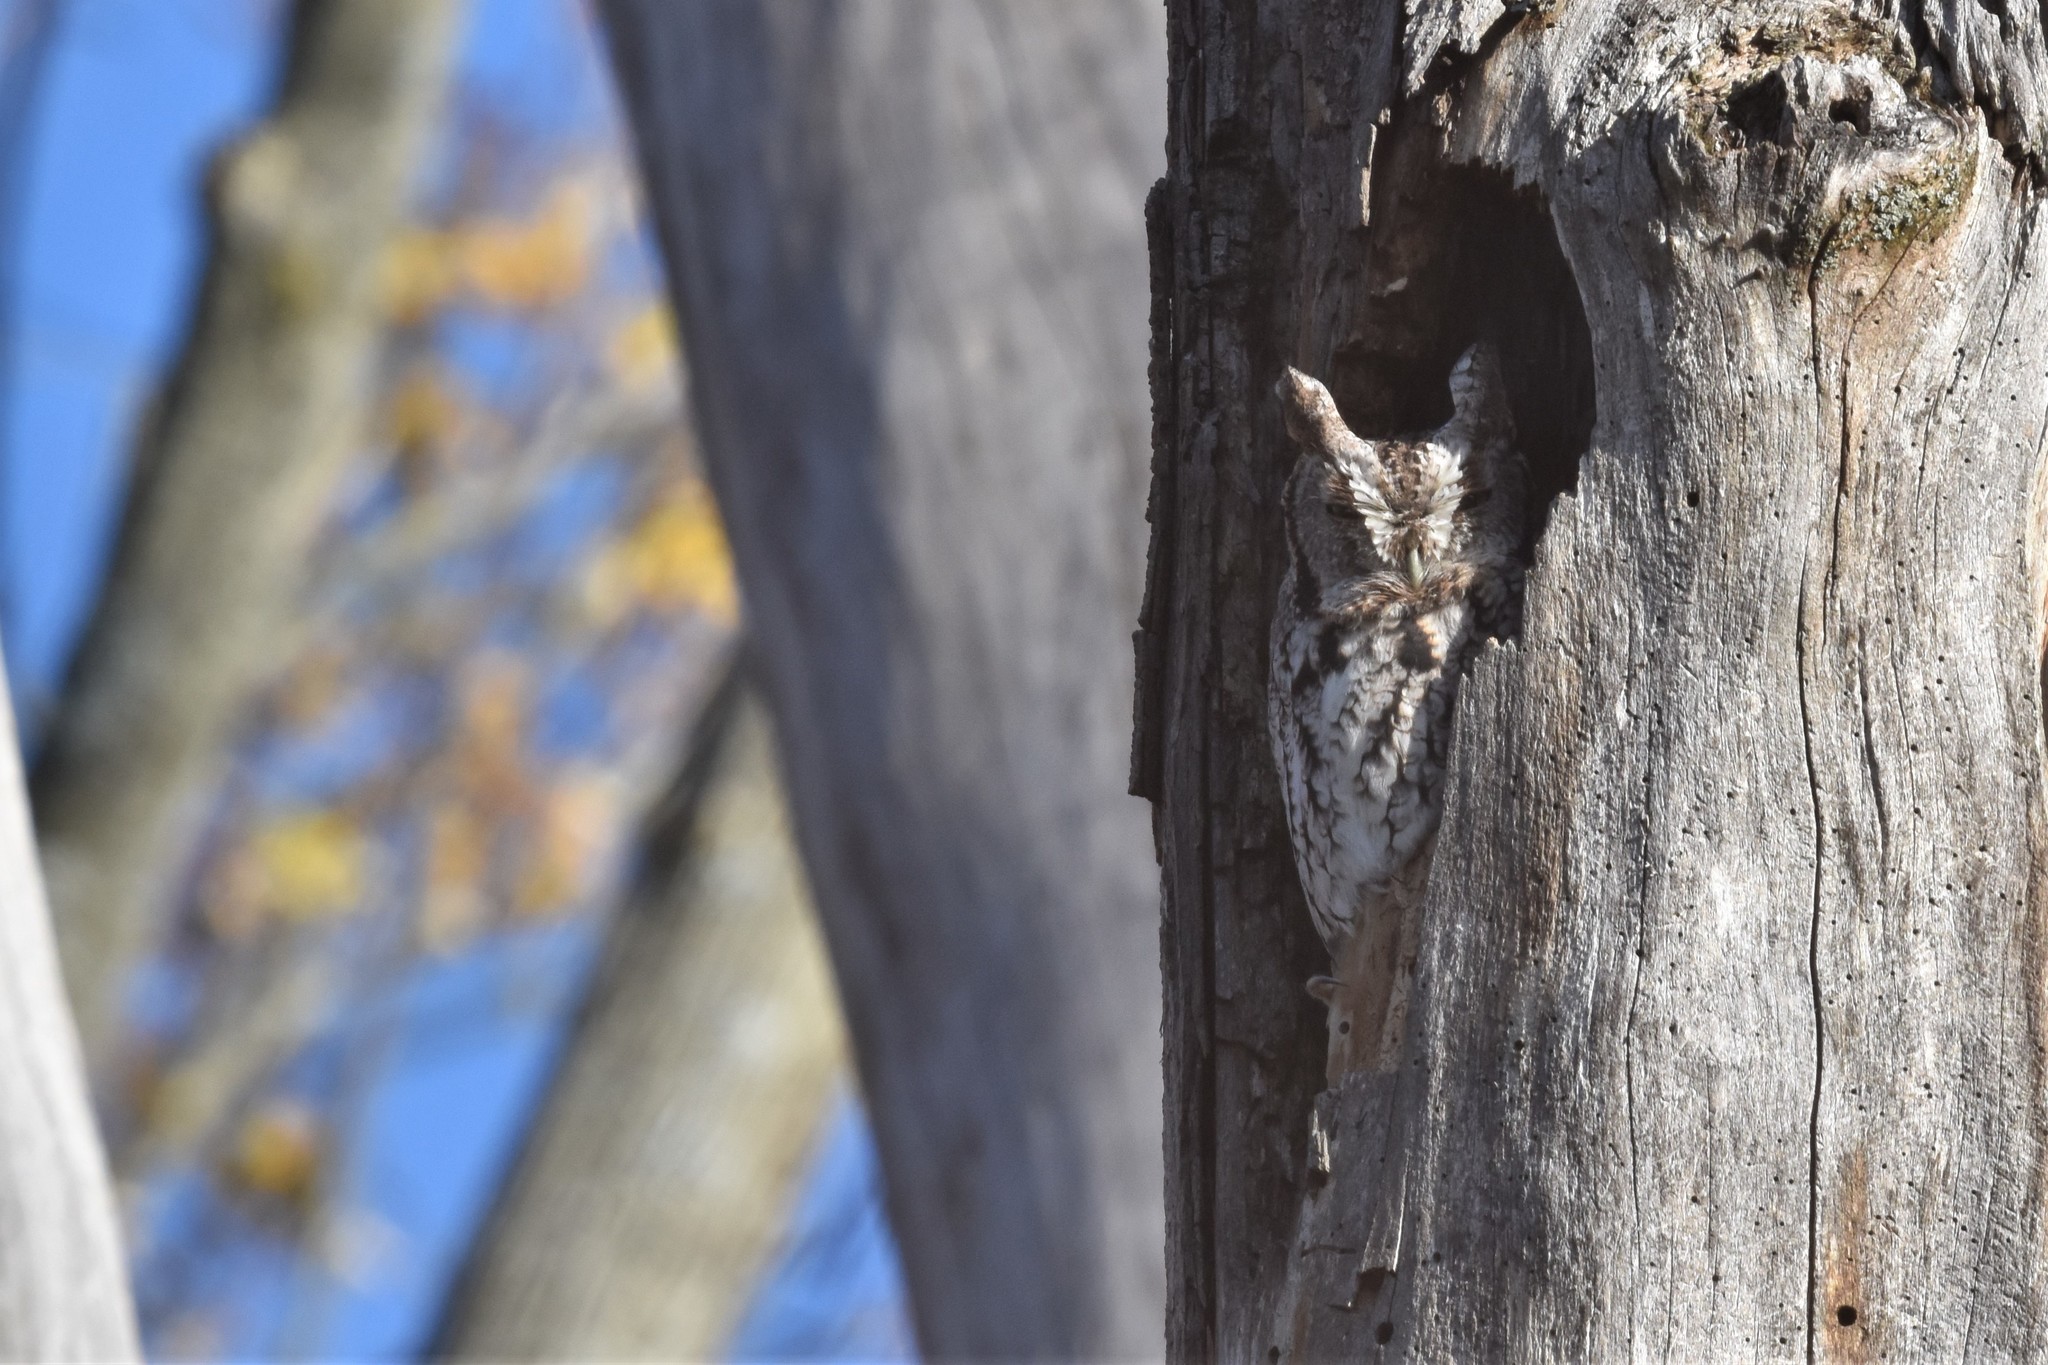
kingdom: Animalia
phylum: Chordata
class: Aves
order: Strigiformes
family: Strigidae
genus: Megascops
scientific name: Megascops asio
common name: Eastern screech-owl
